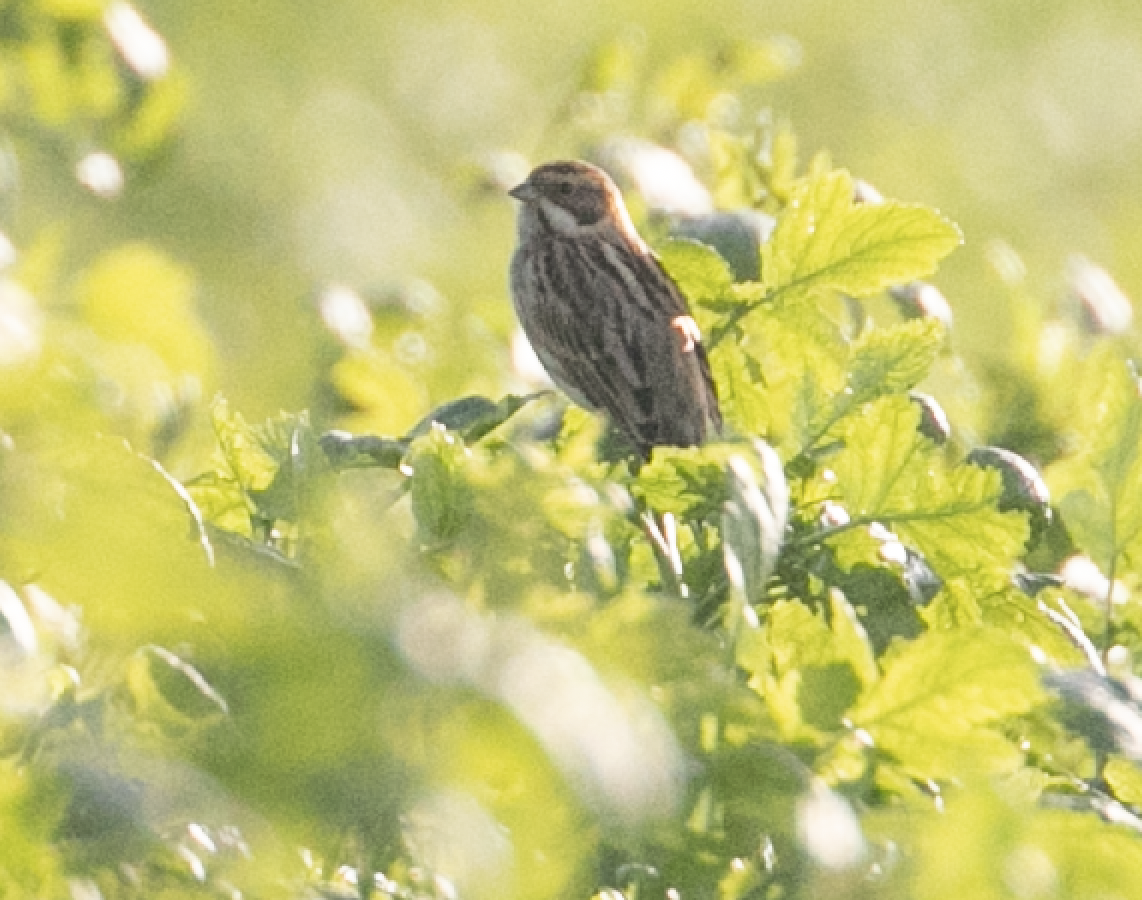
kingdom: Animalia
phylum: Chordata
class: Aves
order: Passeriformes
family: Emberizidae
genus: Emberiza
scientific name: Emberiza schoeniclus
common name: Reed bunting
